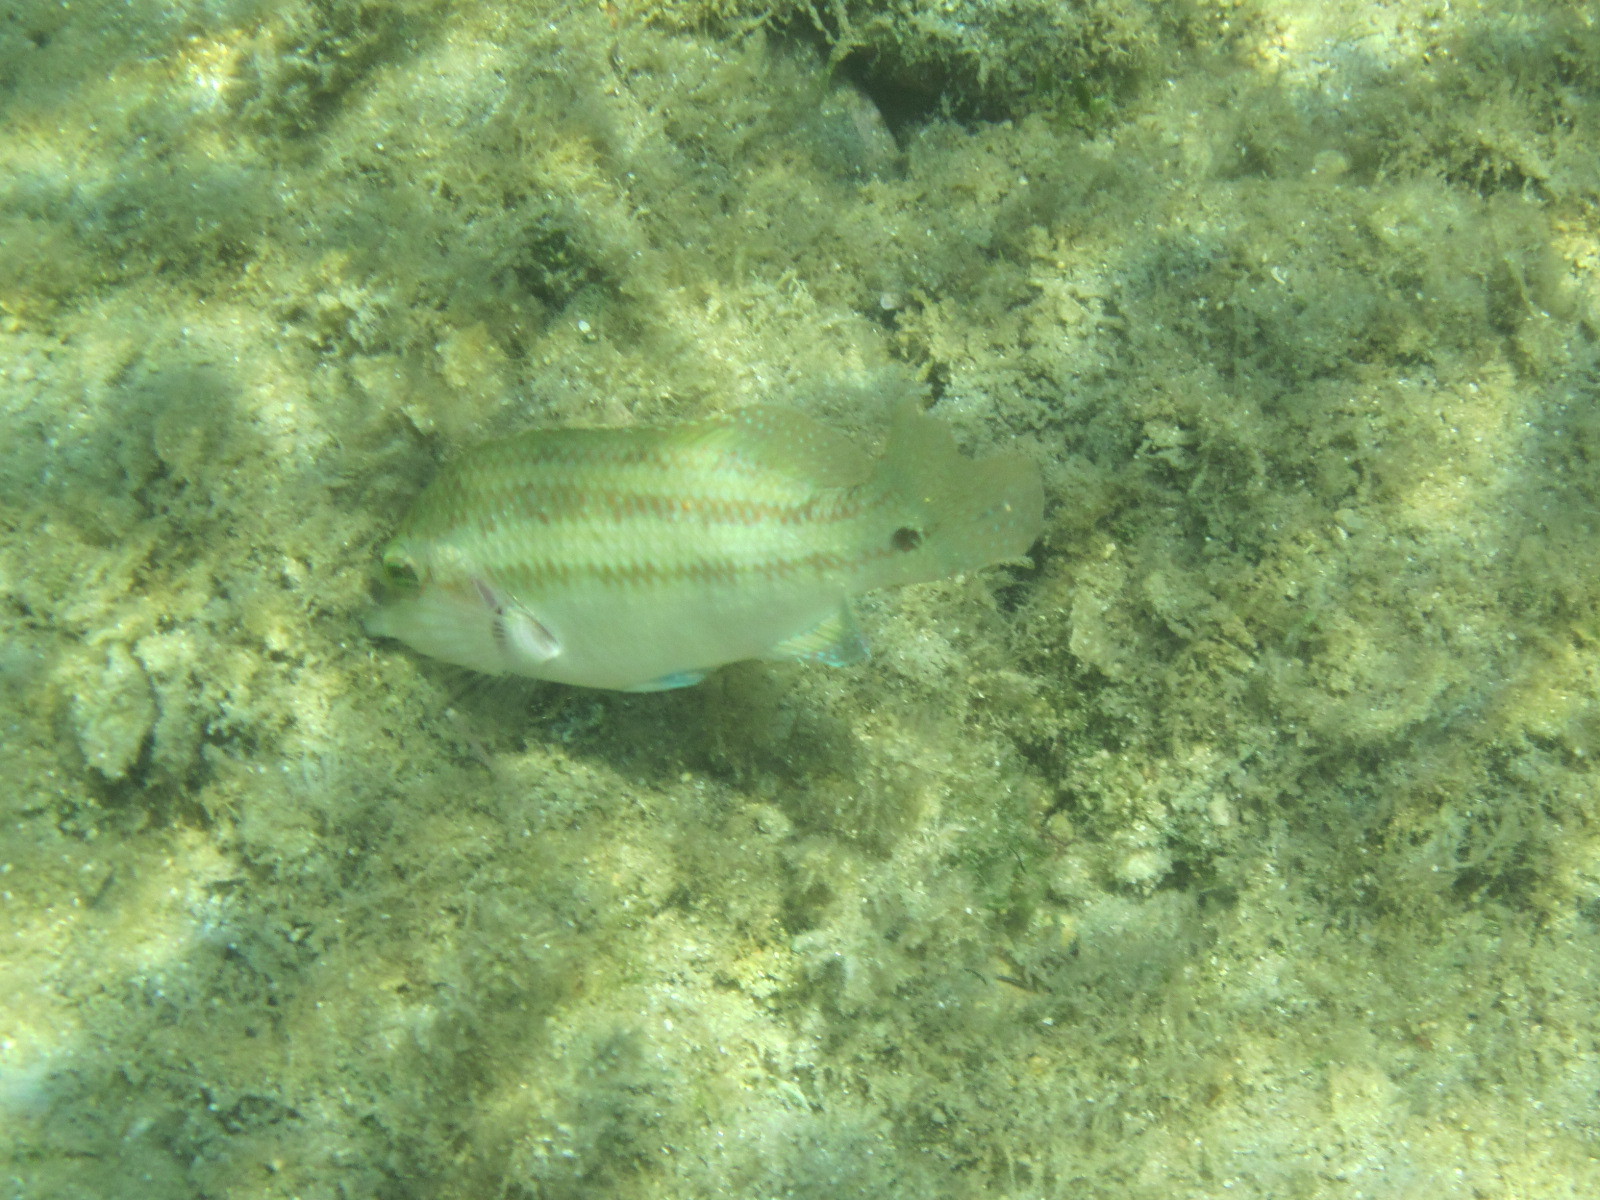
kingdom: Animalia
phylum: Chordata
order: Perciformes
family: Labridae
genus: Symphodus
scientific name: Symphodus tinca
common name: Peacock wrasse
